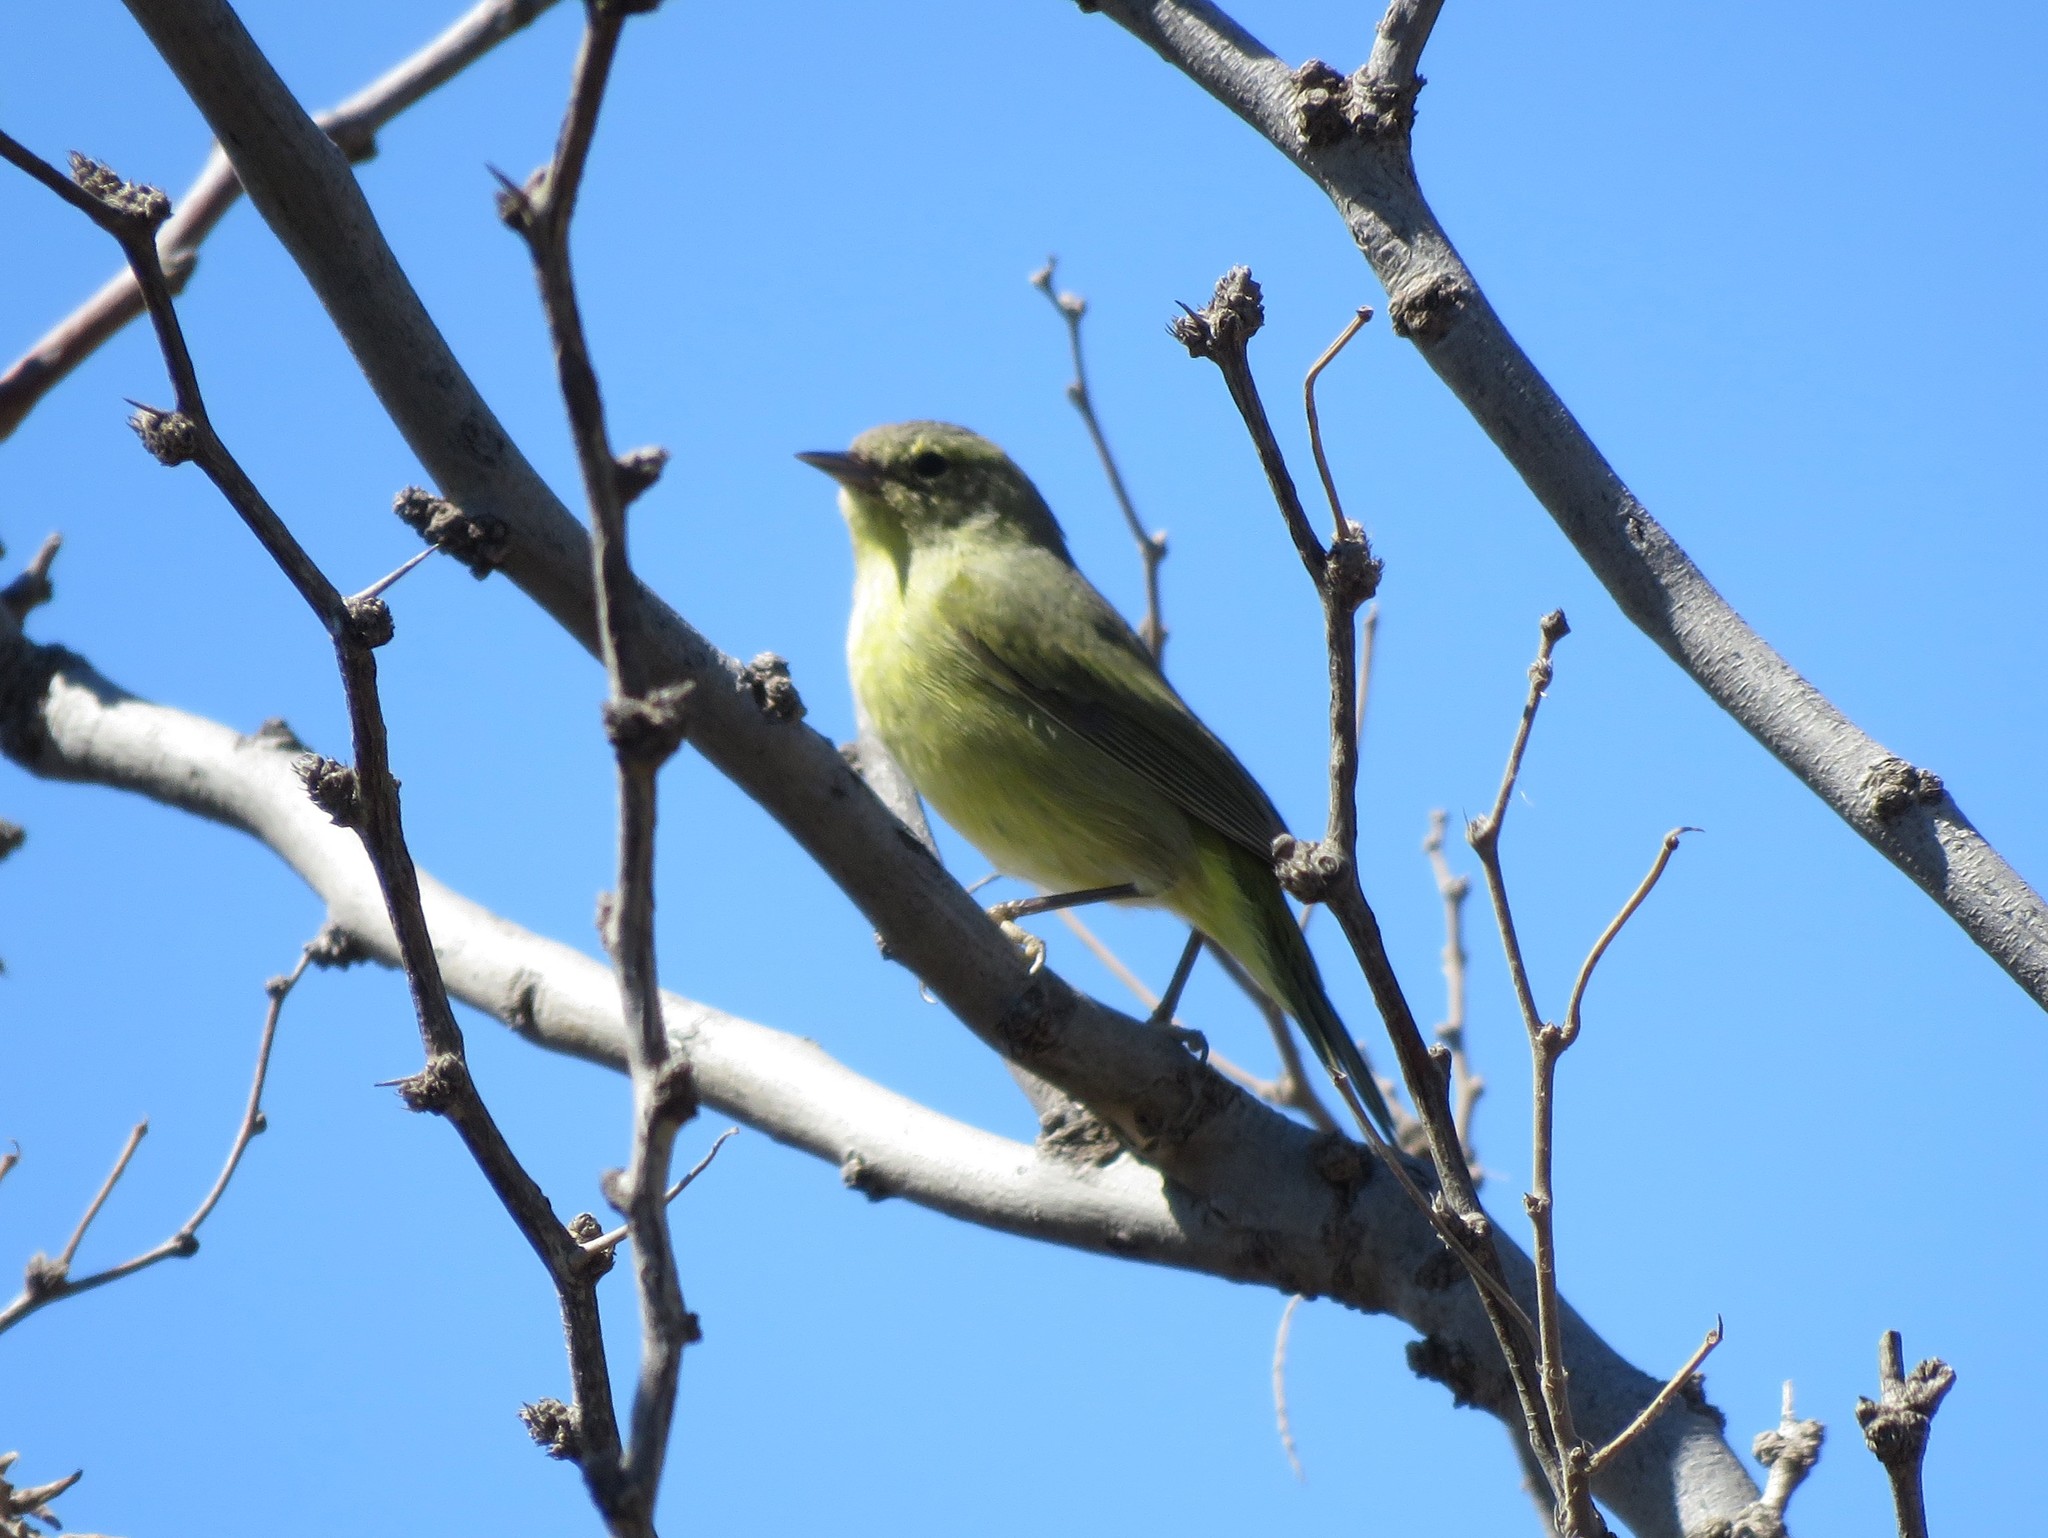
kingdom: Animalia
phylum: Chordata
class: Aves
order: Passeriformes
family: Parulidae
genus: Leiothlypis
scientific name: Leiothlypis celata
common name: Orange-crowned warbler
